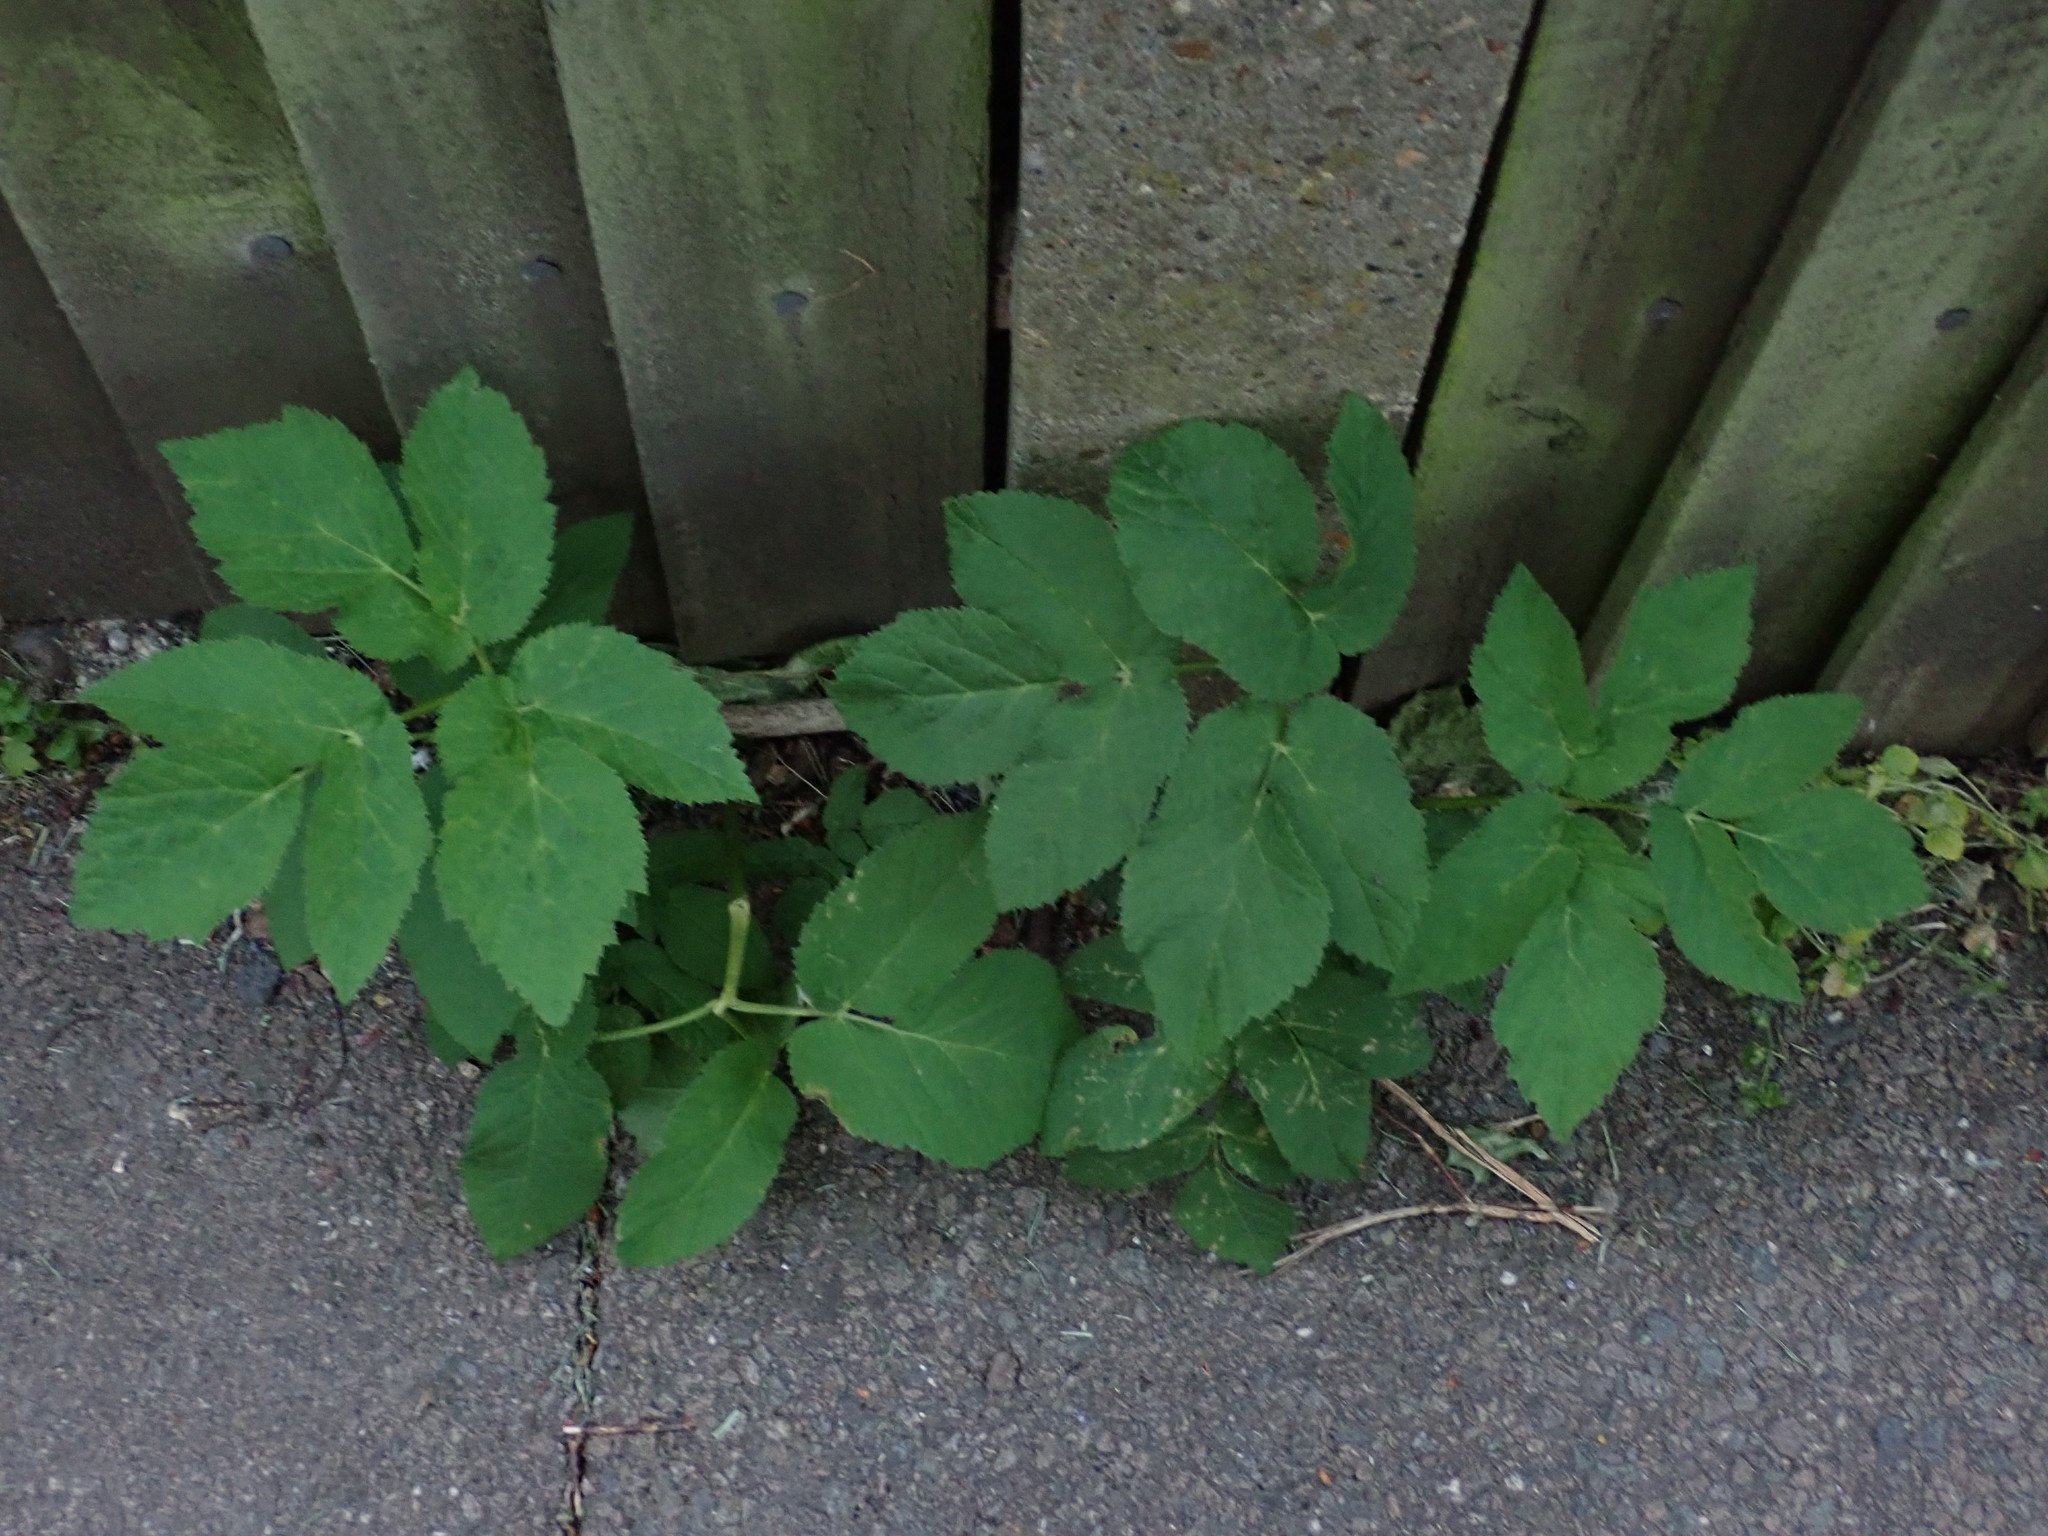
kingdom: Plantae
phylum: Tracheophyta
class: Magnoliopsida
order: Apiales
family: Apiaceae
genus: Aegopodium
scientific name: Aegopodium podagraria
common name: Ground-elder
